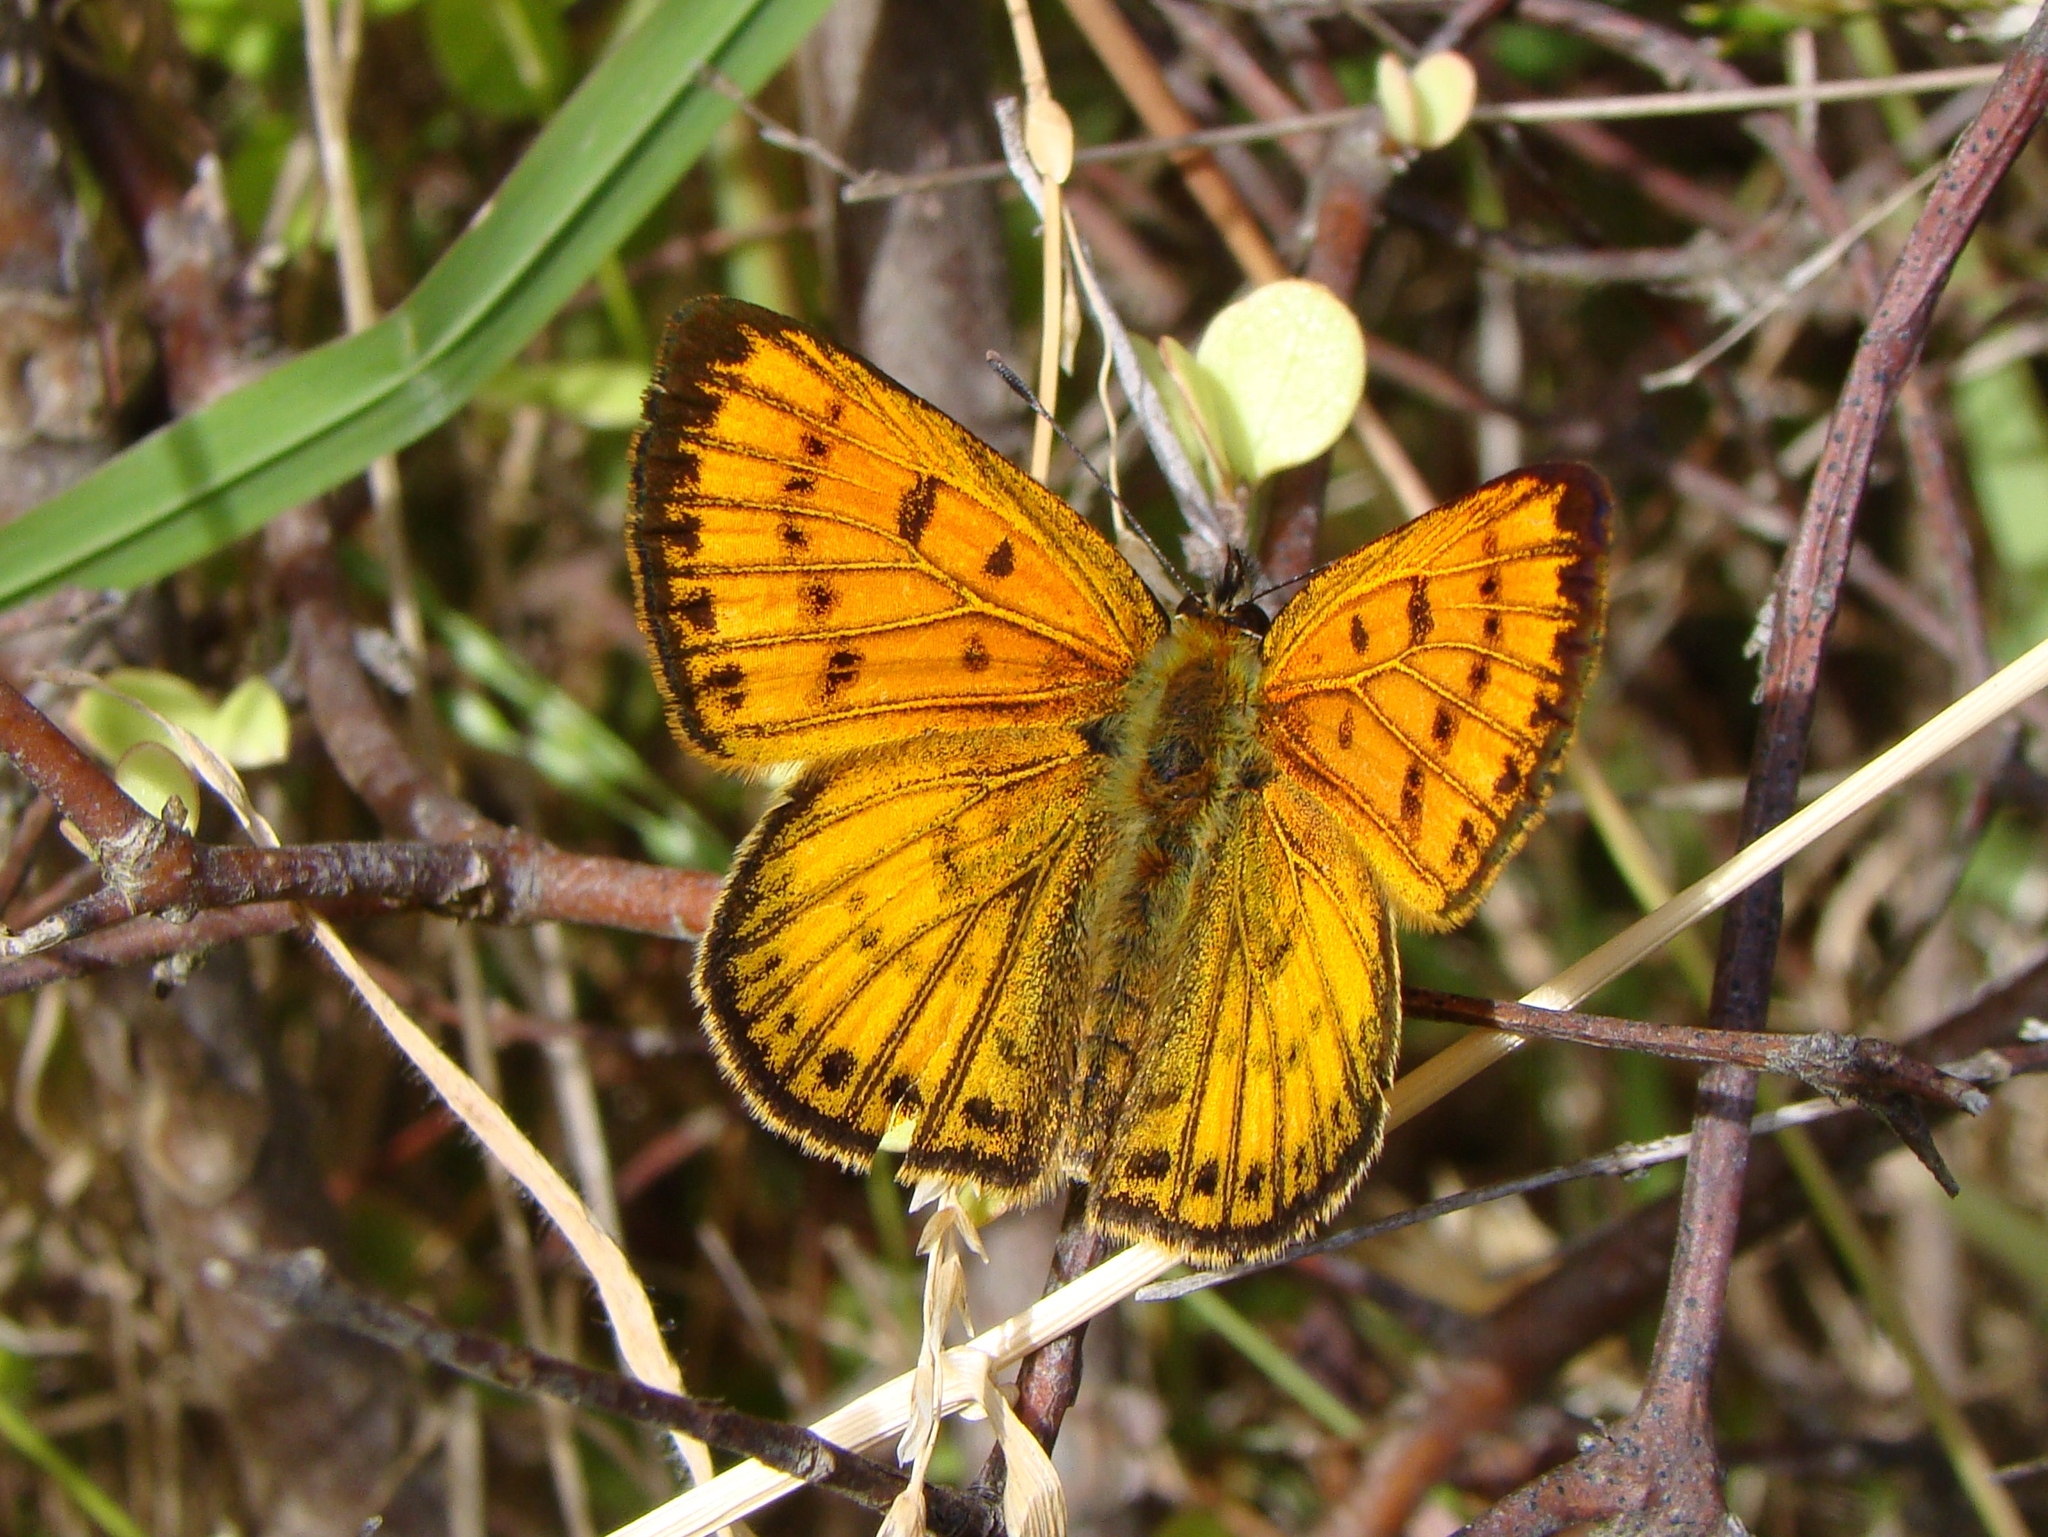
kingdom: Animalia
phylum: Arthropoda
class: Insecta
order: Lepidoptera
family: Lycaenidae
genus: Lycaena
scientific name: Lycaena salustius
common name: North island coastal copper
